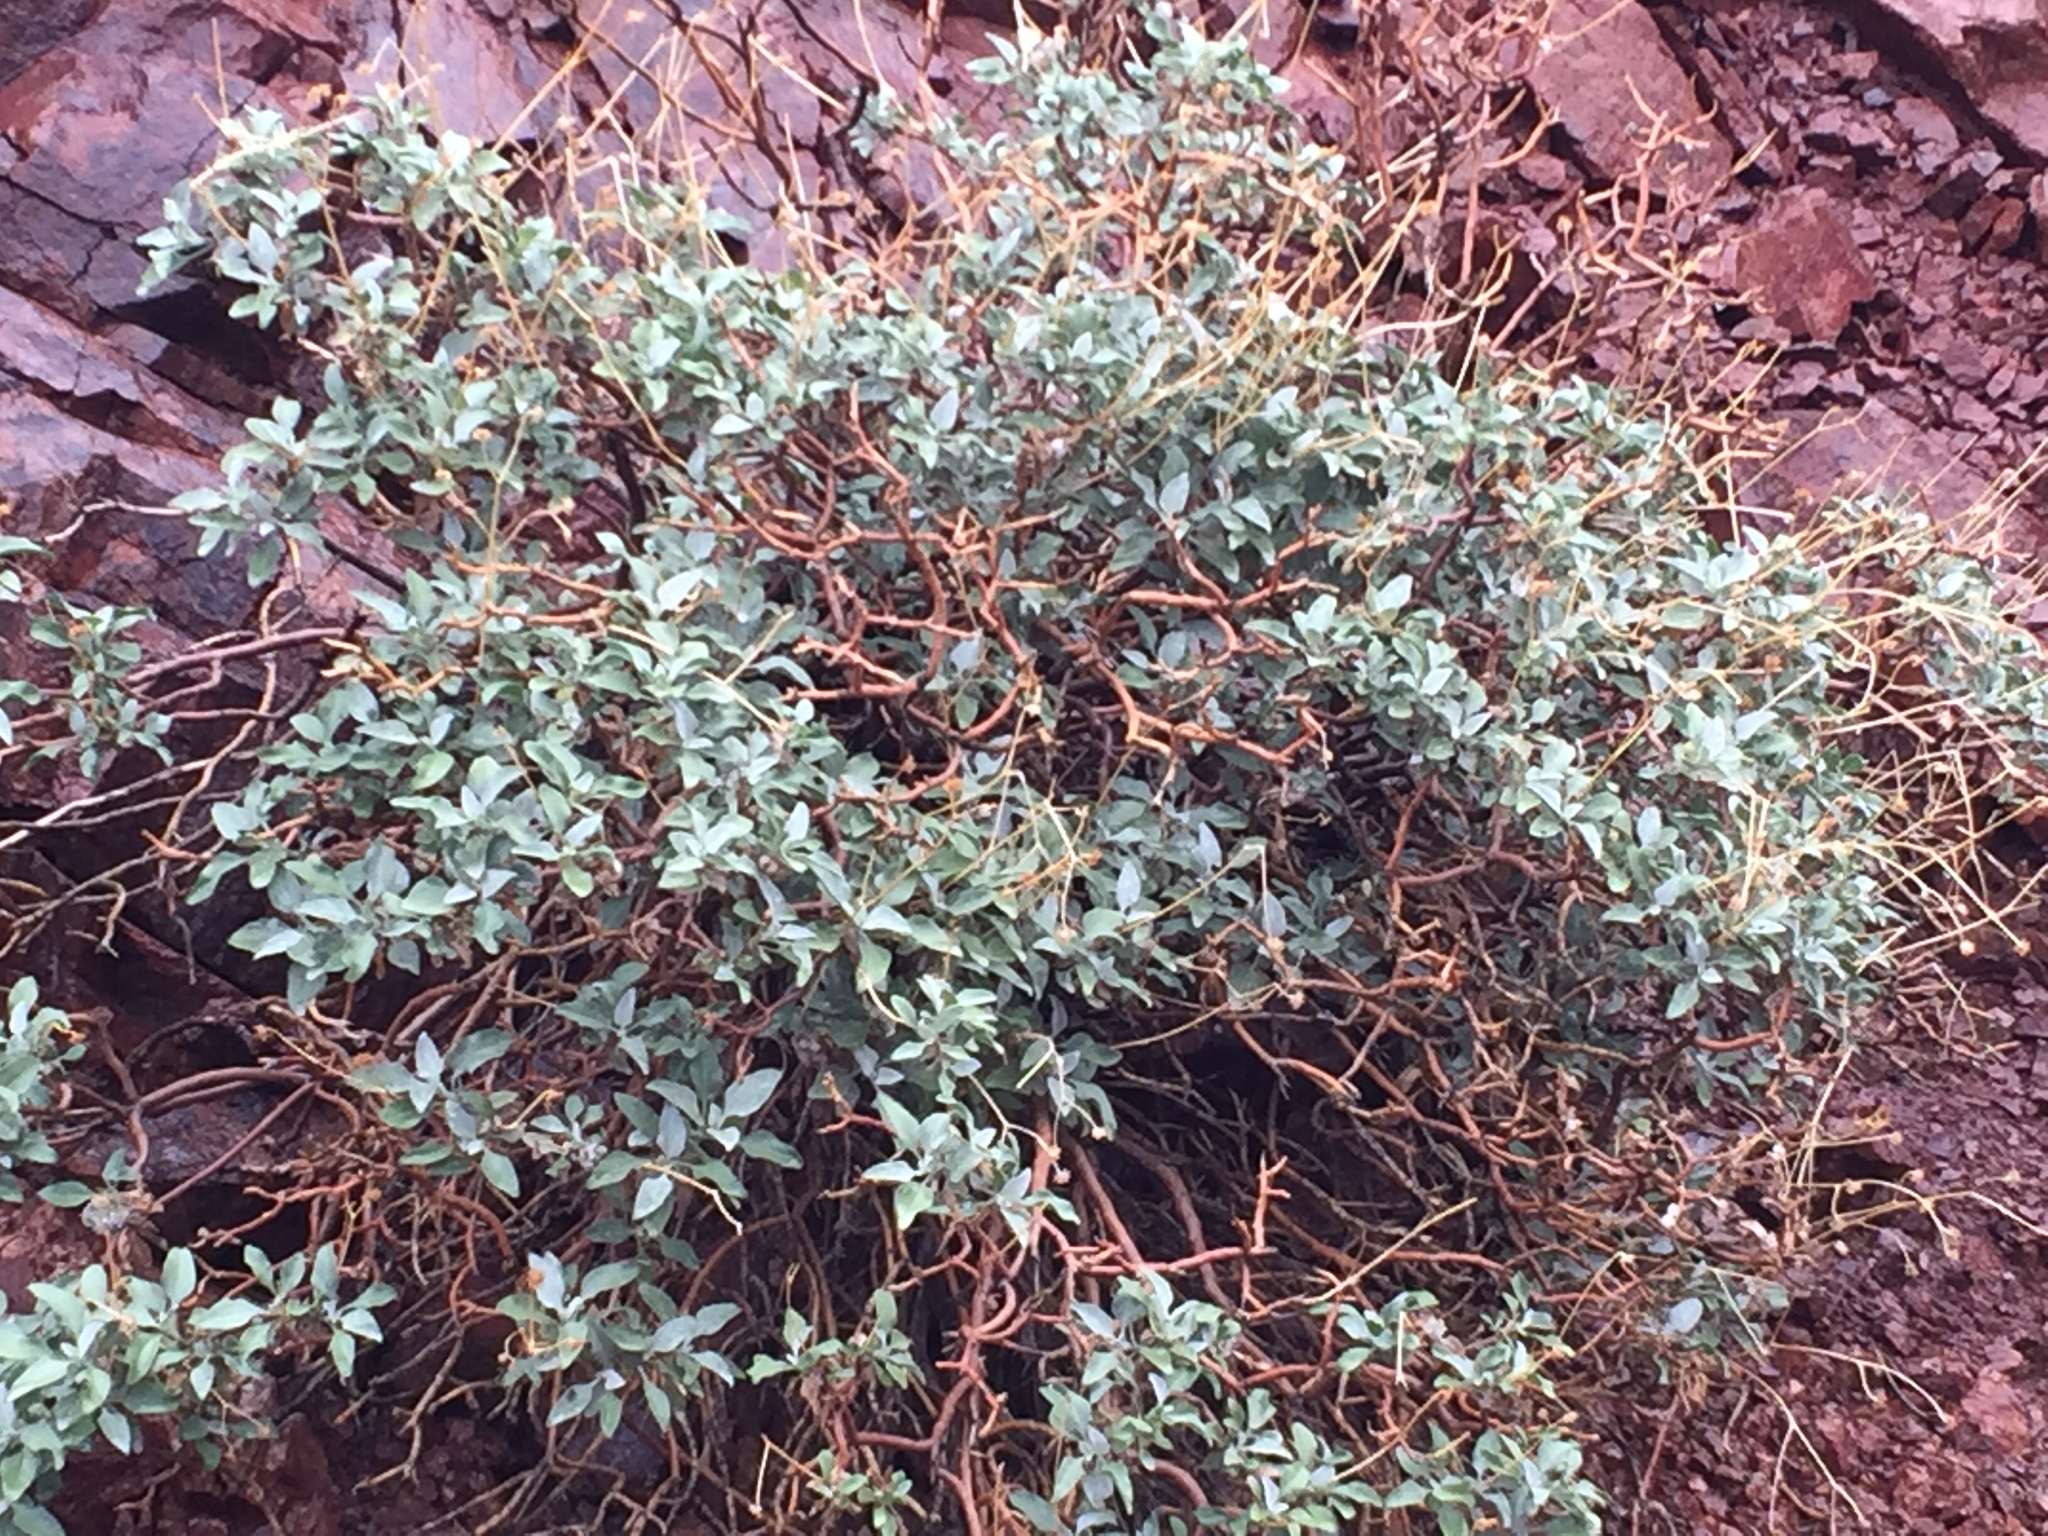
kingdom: Plantae
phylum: Tracheophyta
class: Magnoliopsida
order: Asterales
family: Asteraceae
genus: Encelia
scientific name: Encelia farinosa
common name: Brittlebush
